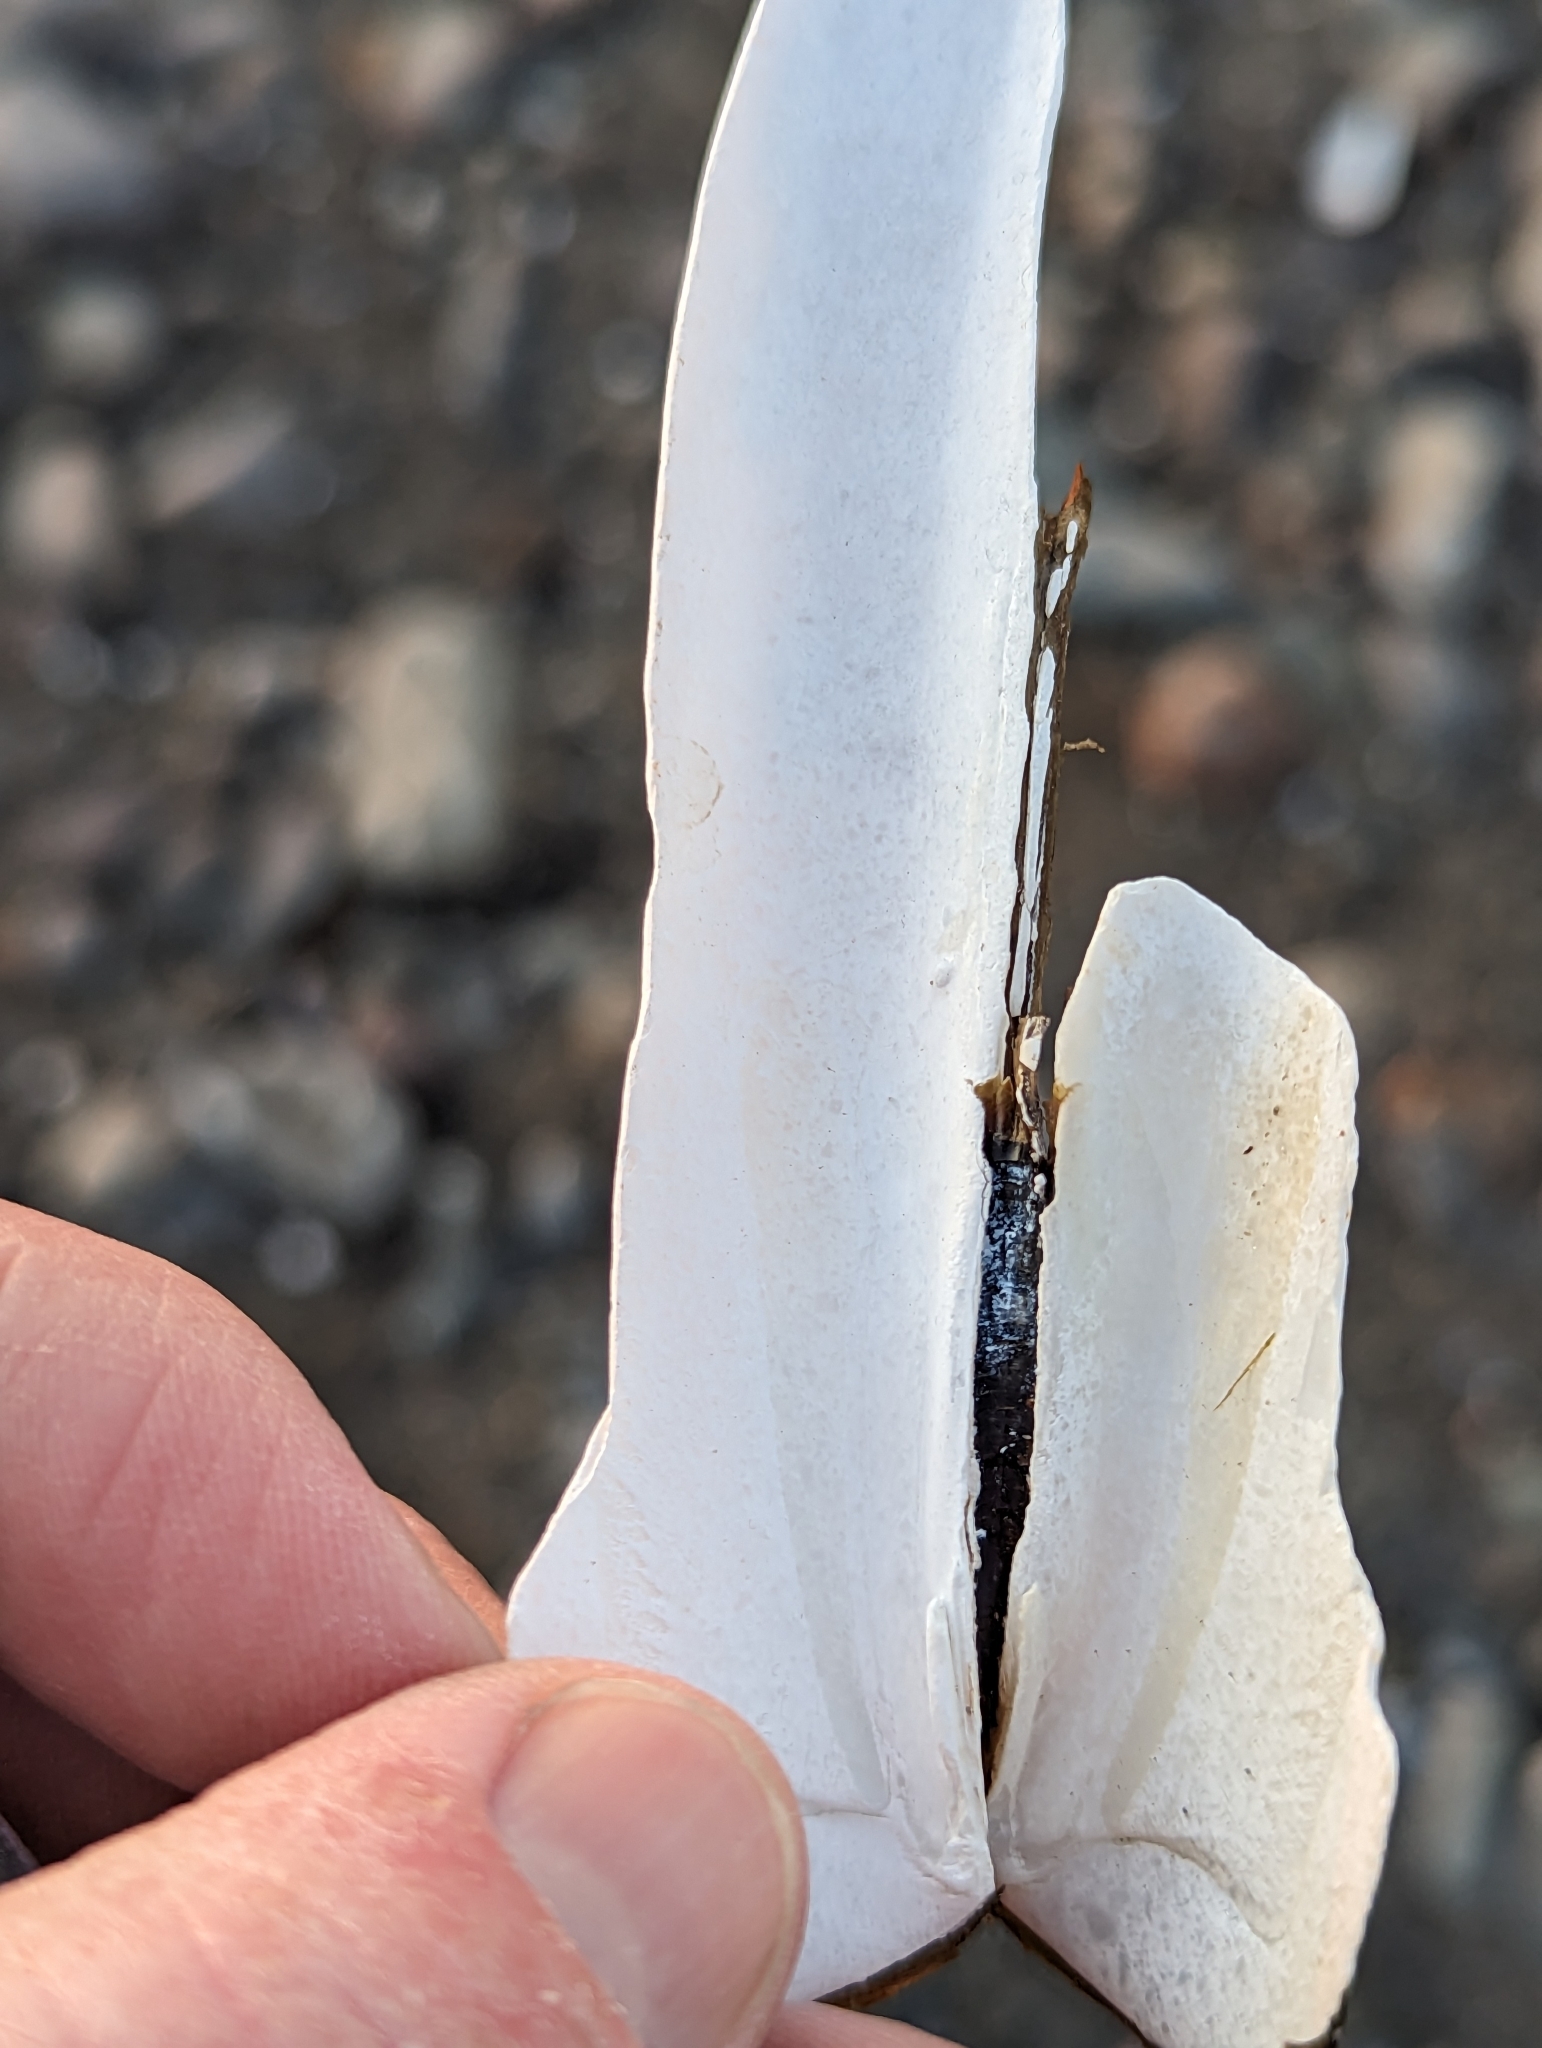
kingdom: Animalia
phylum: Mollusca
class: Bivalvia
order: Adapedonta
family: Pharidae
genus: Ensis
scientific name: Ensis leei
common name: American jack knife clam
